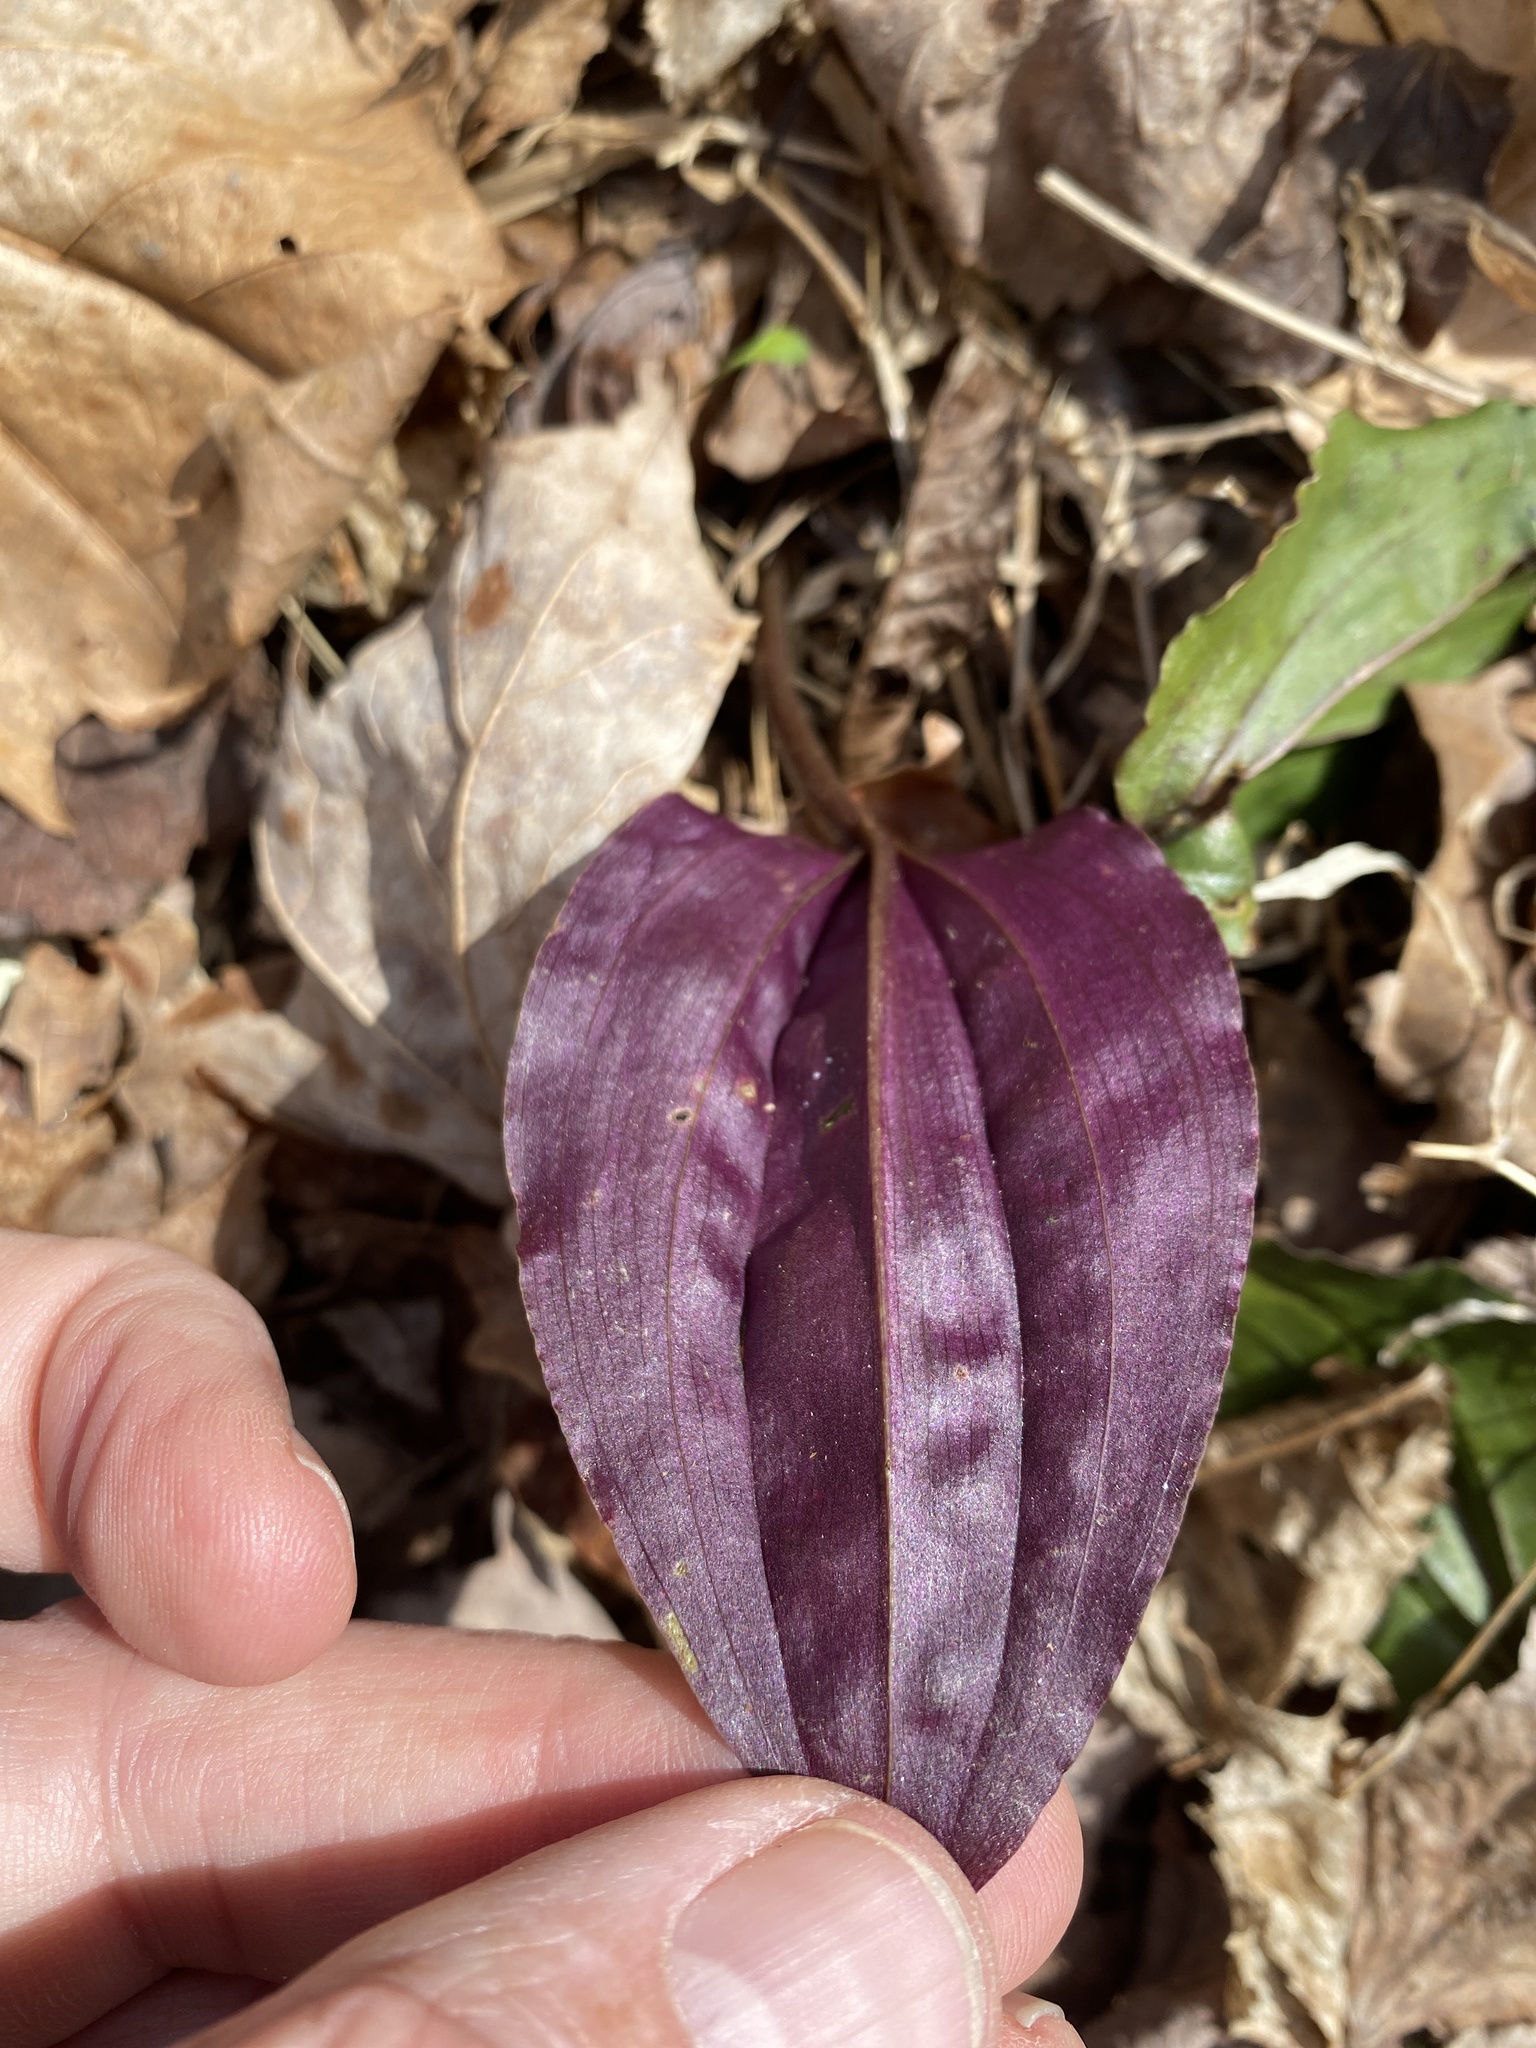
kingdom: Plantae
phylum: Tracheophyta
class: Liliopsida
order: Asparagales
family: Orchidaceae
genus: Tipularia
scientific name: Tipularia discolor
